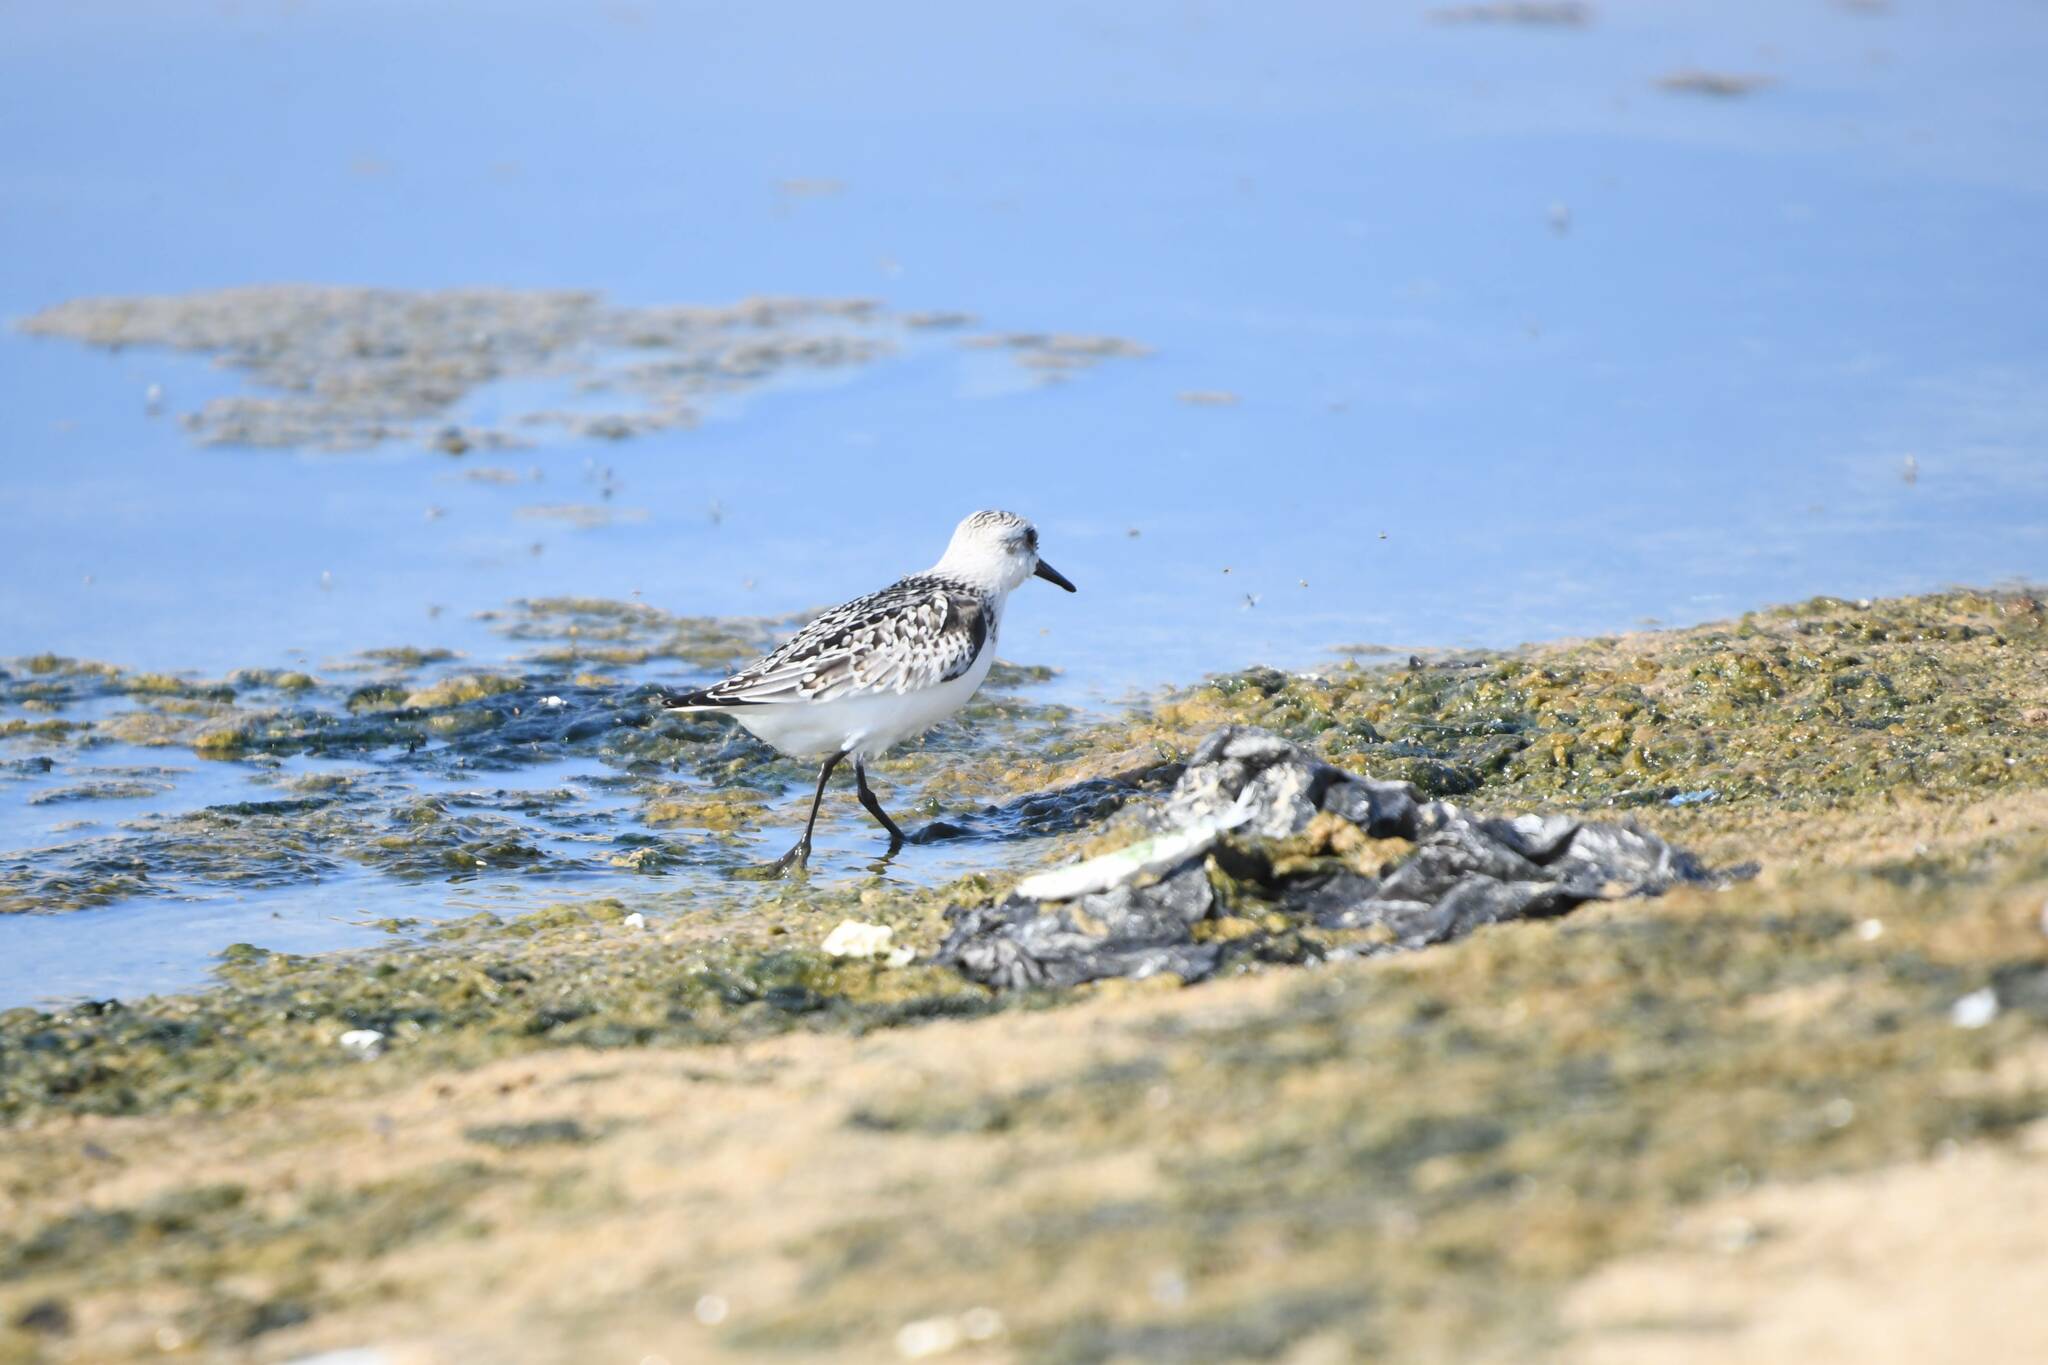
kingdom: Animalia
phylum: Chordata
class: Aves
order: Charadriiformes
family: Scolopacidae
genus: Calidris
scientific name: Calidris alba
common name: Sanderling
